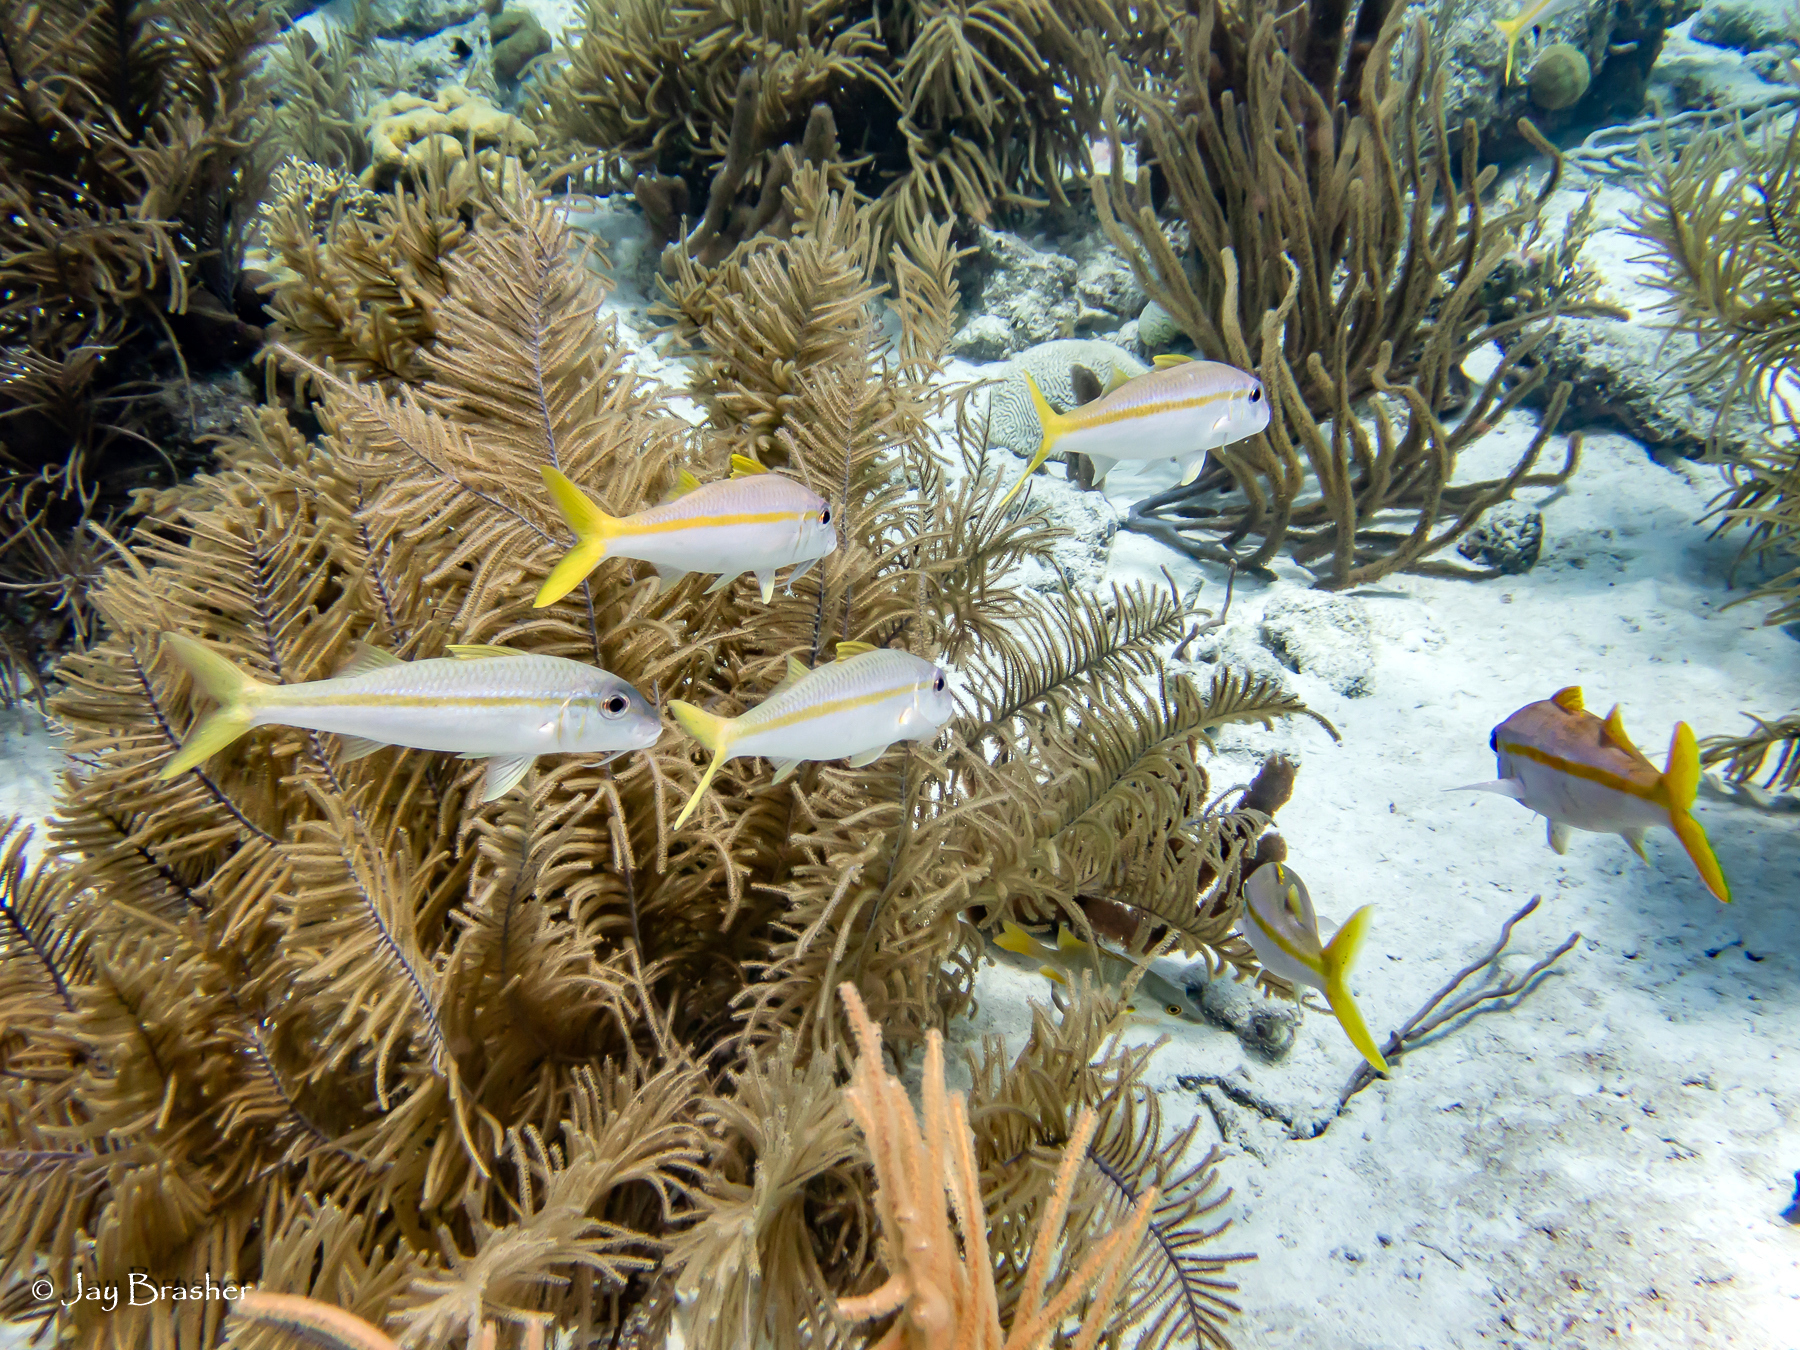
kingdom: Animalia
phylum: Chordata
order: Perciformes
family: Mullidae
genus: Mulloidichthys
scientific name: Mulloidichthys martinicus
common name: Yellow goatfish
